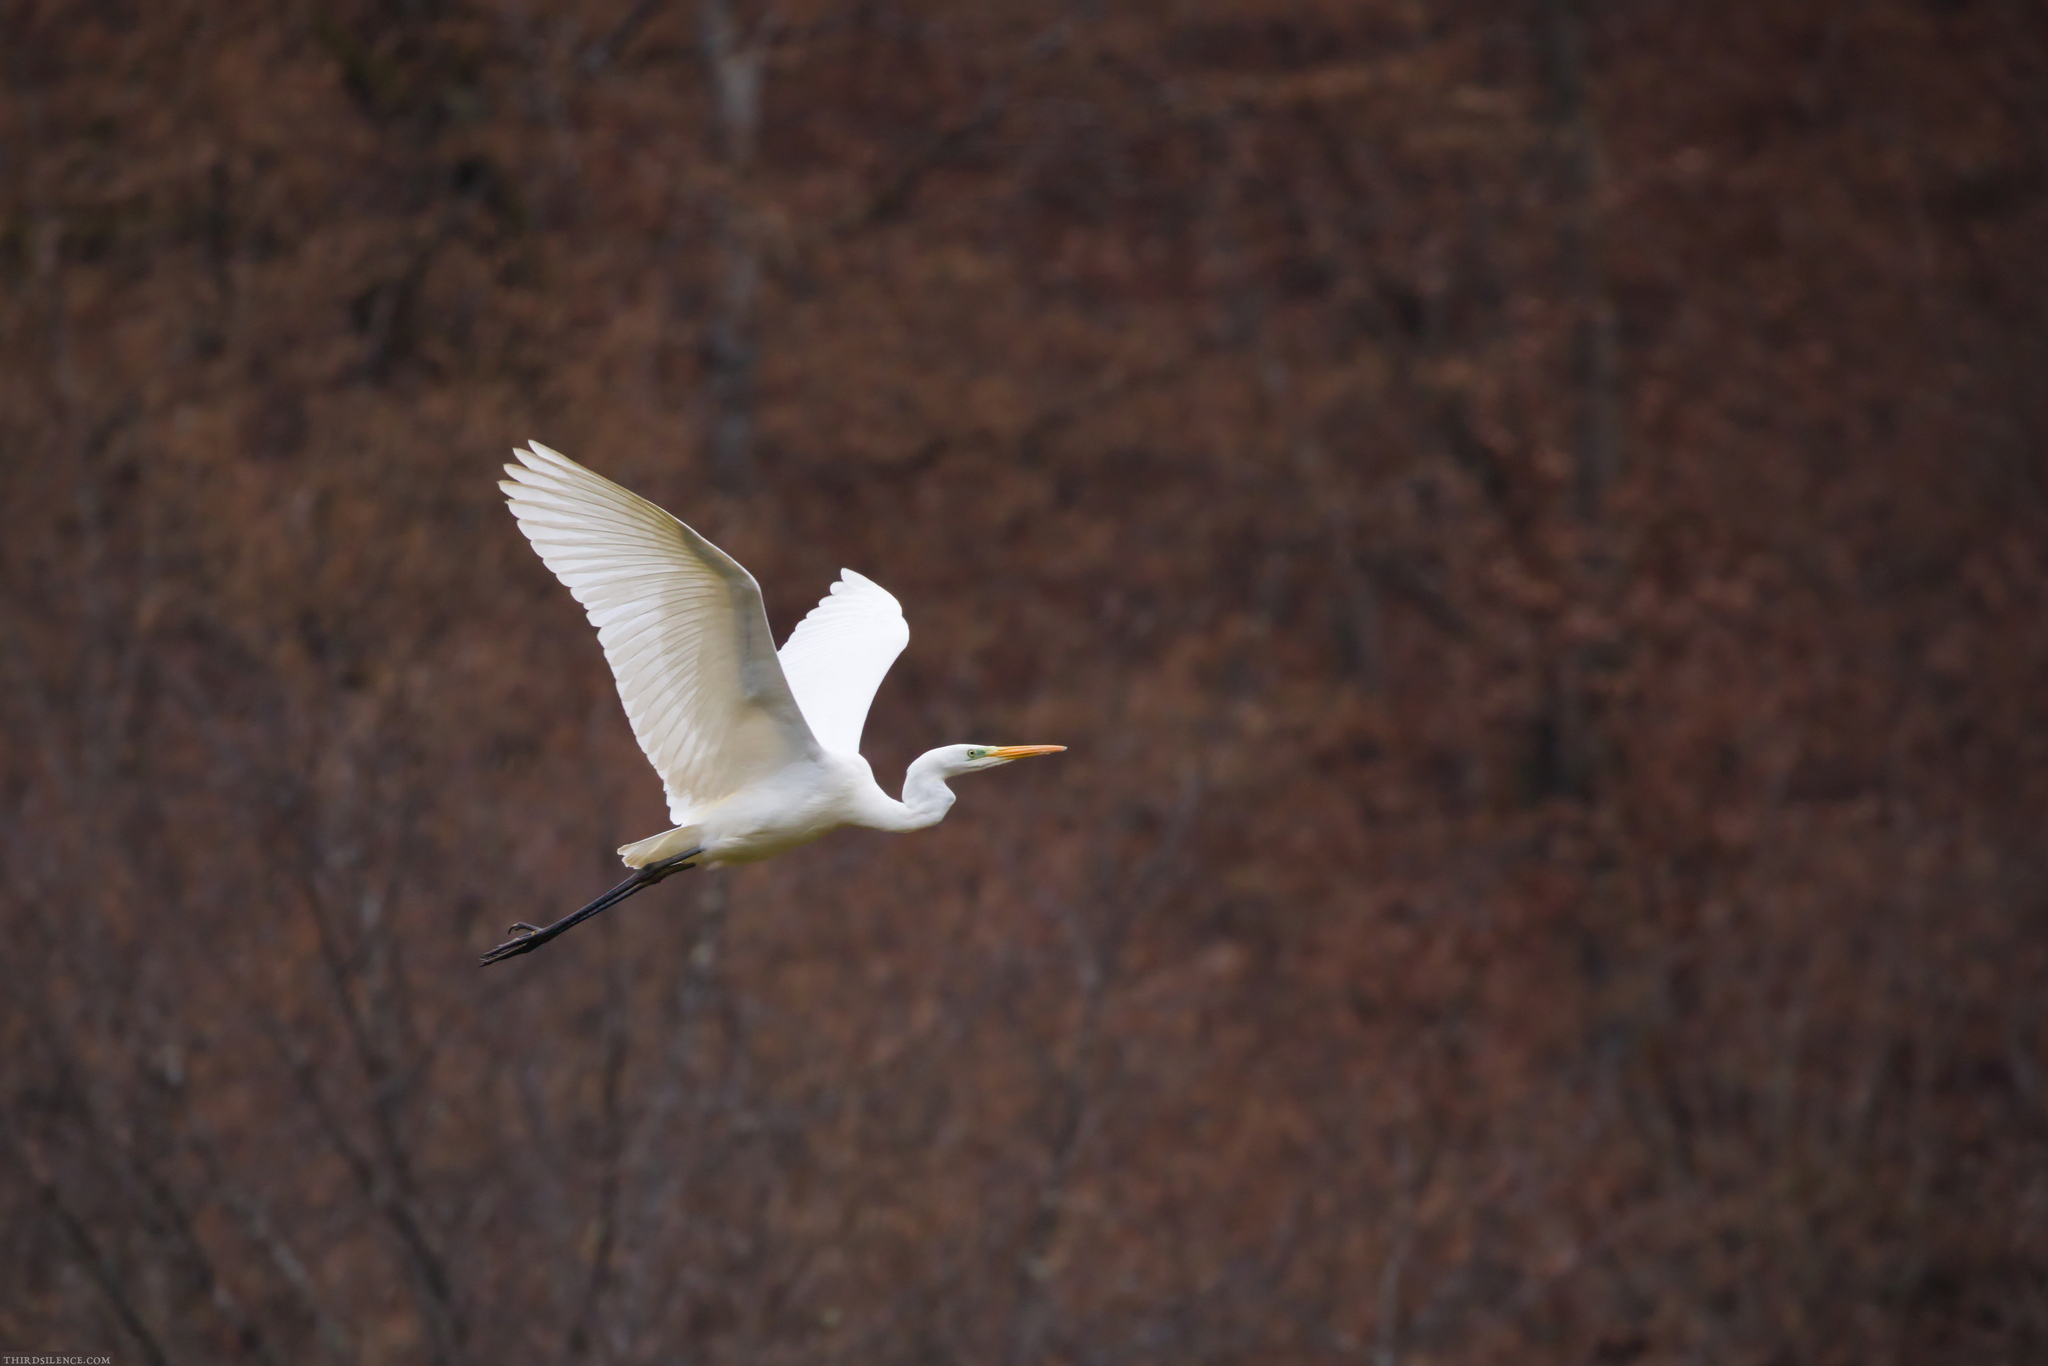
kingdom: Animalia
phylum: Chordata
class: Aves
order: Pelecaniformes
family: Ardeidae
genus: Ardea
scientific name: Ardea alba
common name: Great egret
